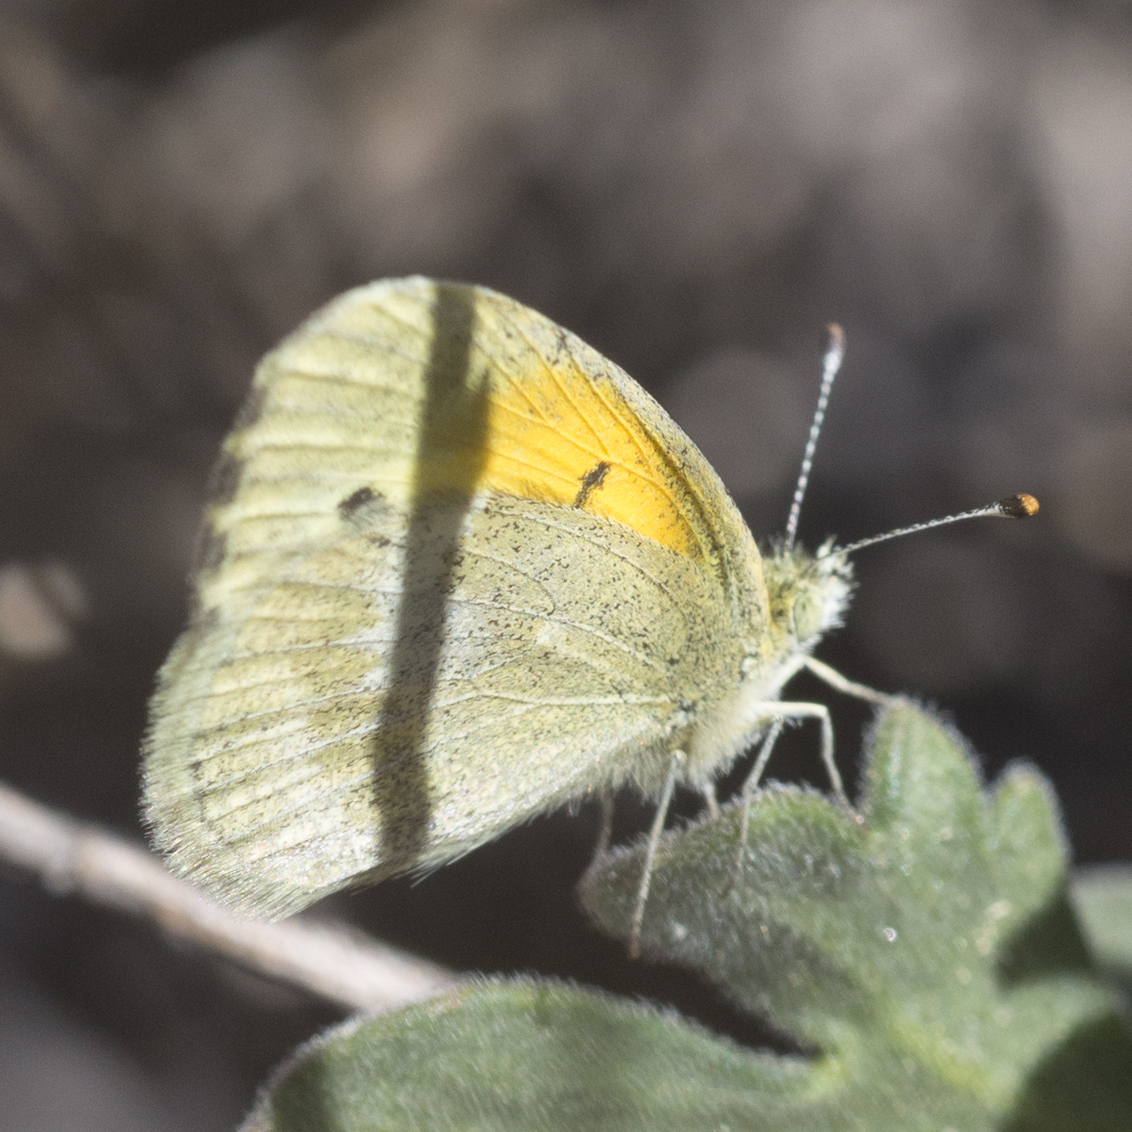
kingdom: Animalia
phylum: Arthropoda
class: Insecta
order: Lepidoptera
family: Pieridae
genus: Nathalis
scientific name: Nathalis iole
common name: Dainty sulphur
